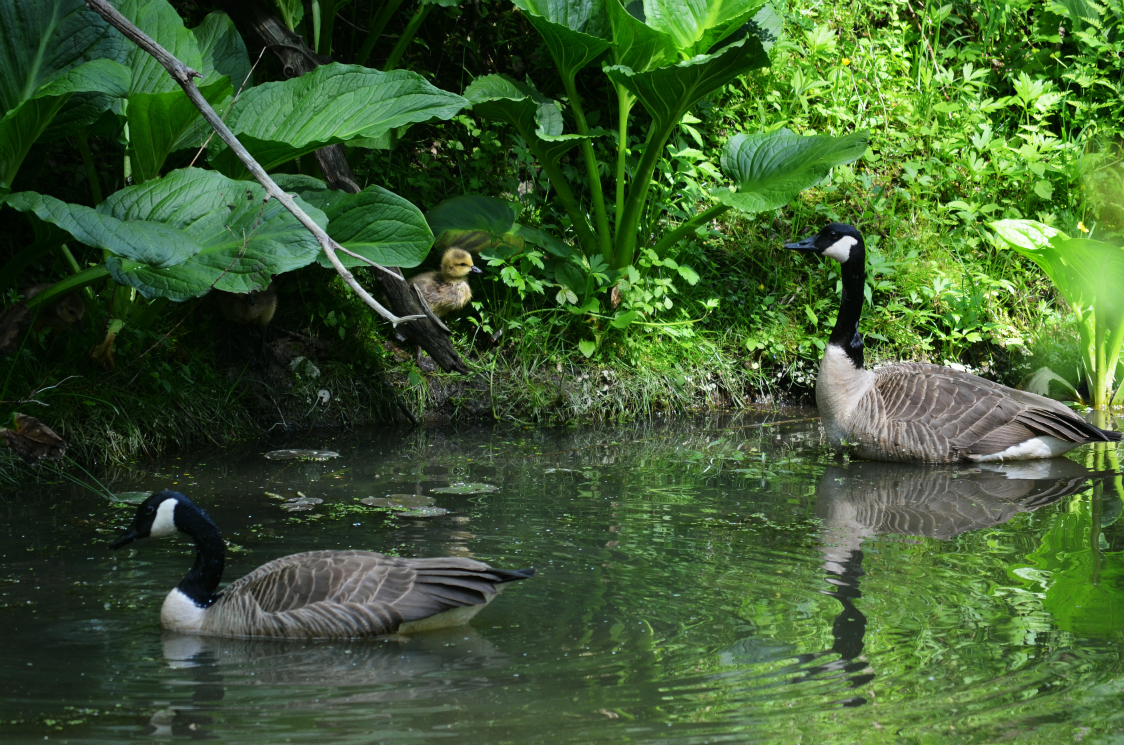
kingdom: Animalia
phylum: Chordata
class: Aves
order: Anseriformes
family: Anatidae
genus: Branta
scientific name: Branta canadensis
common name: Canada goose
